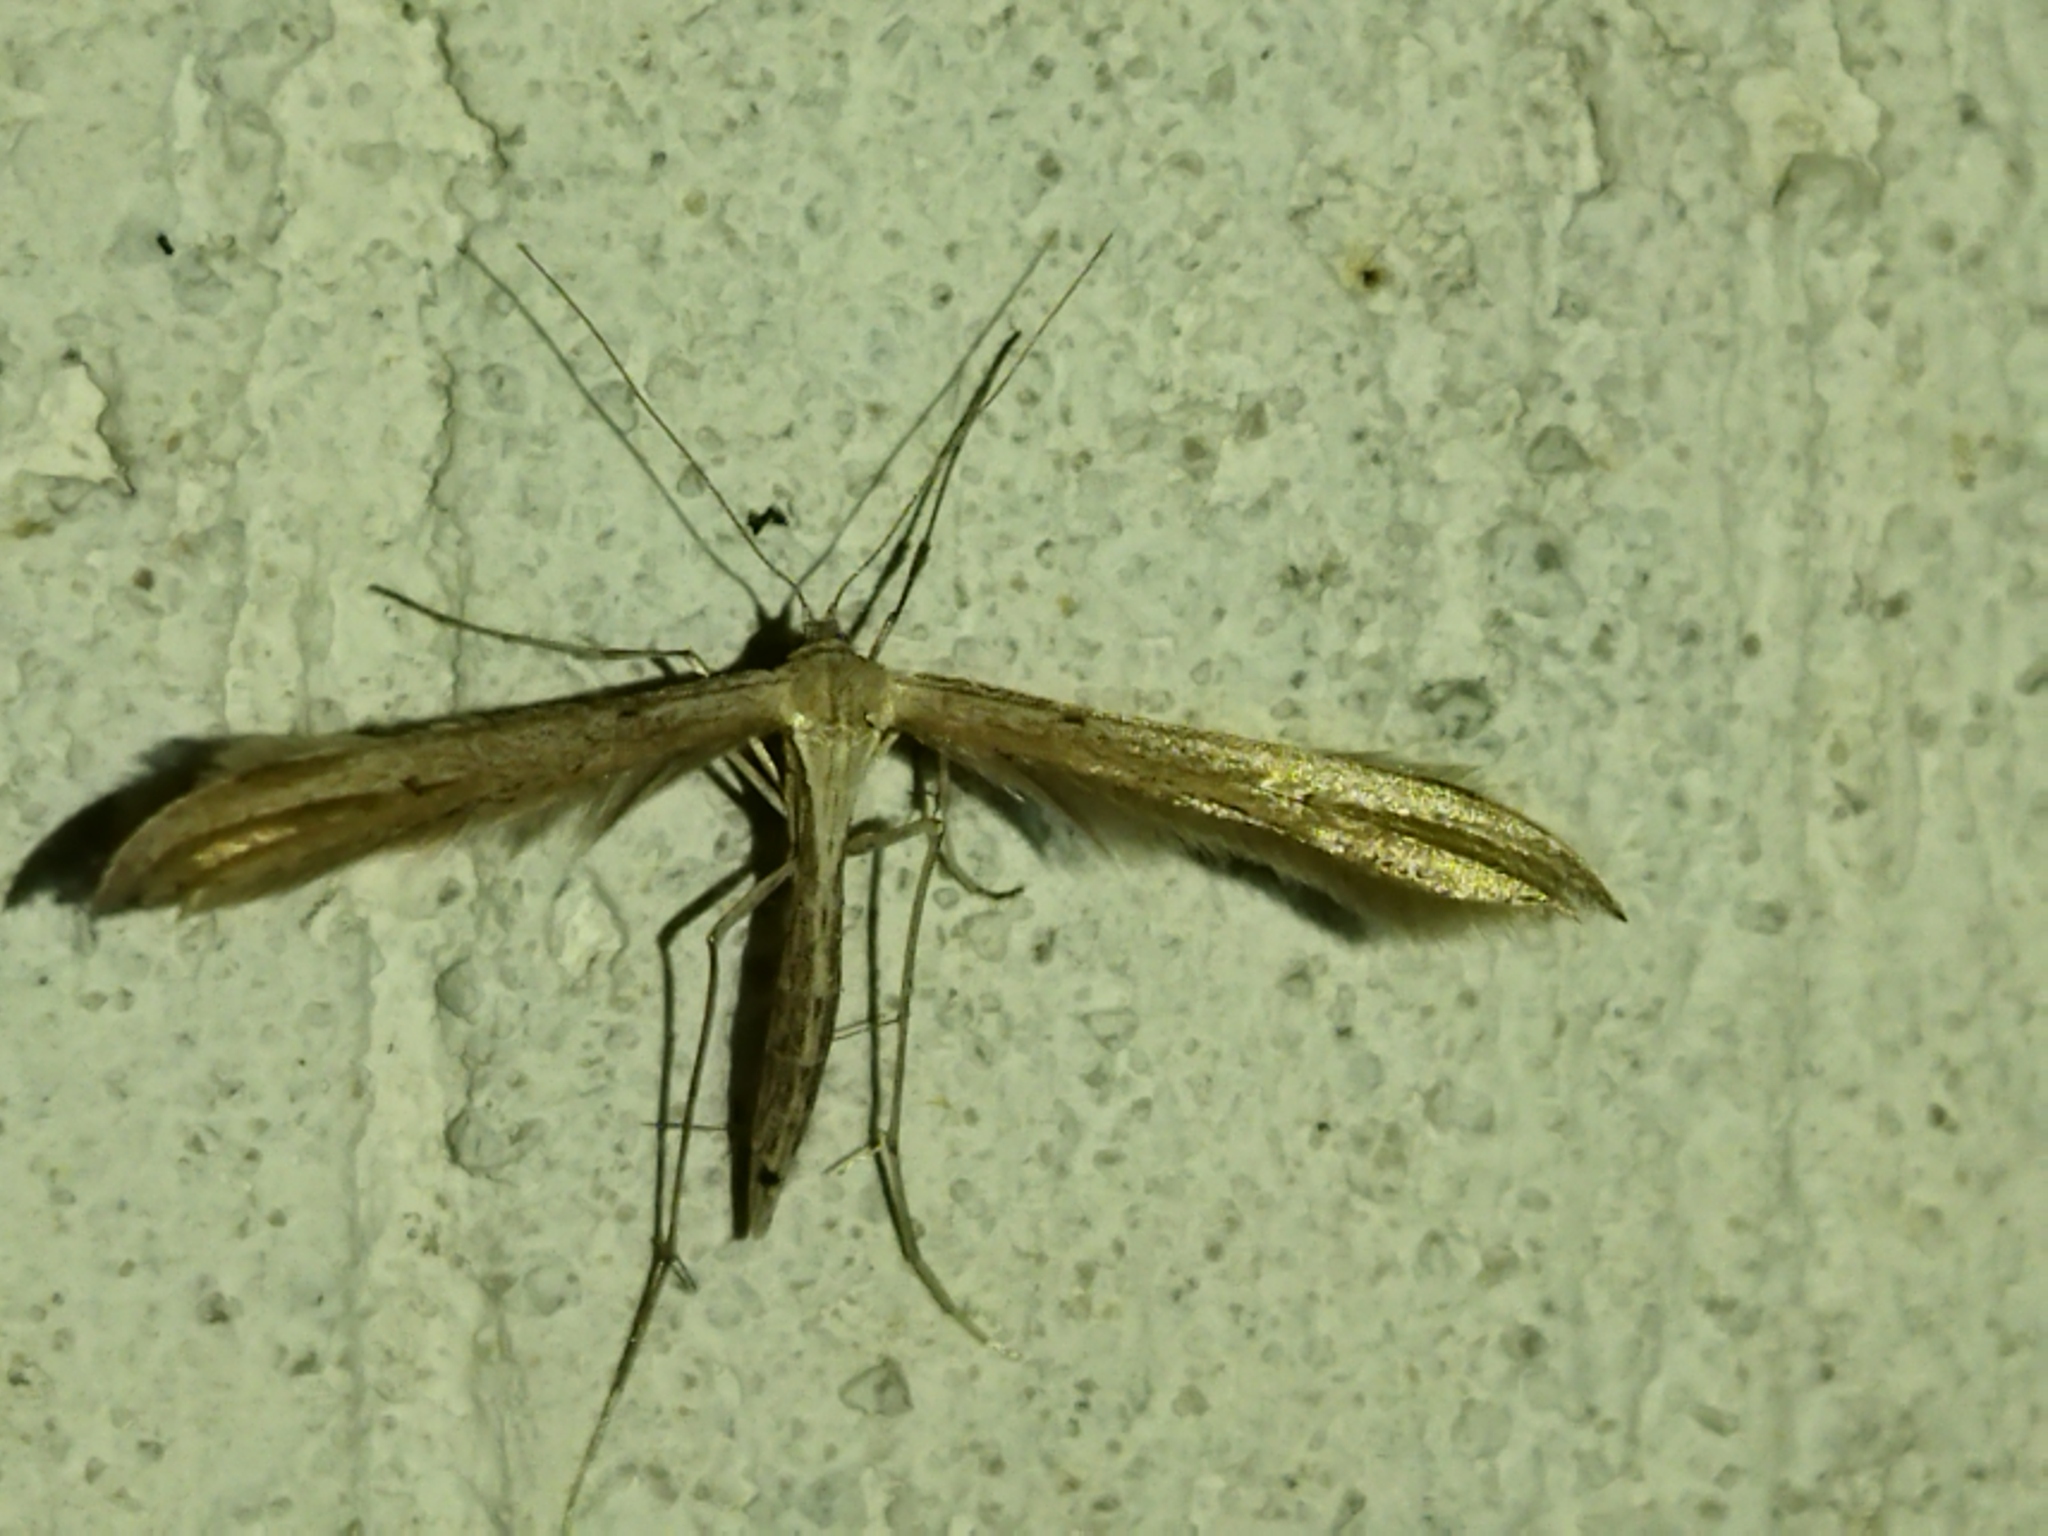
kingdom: Animalia
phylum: Arthropoda
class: Insecta
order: Lepidoptera
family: Pterophoridae
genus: Emmelina
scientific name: Emmelina monodactyla
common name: Common plume
